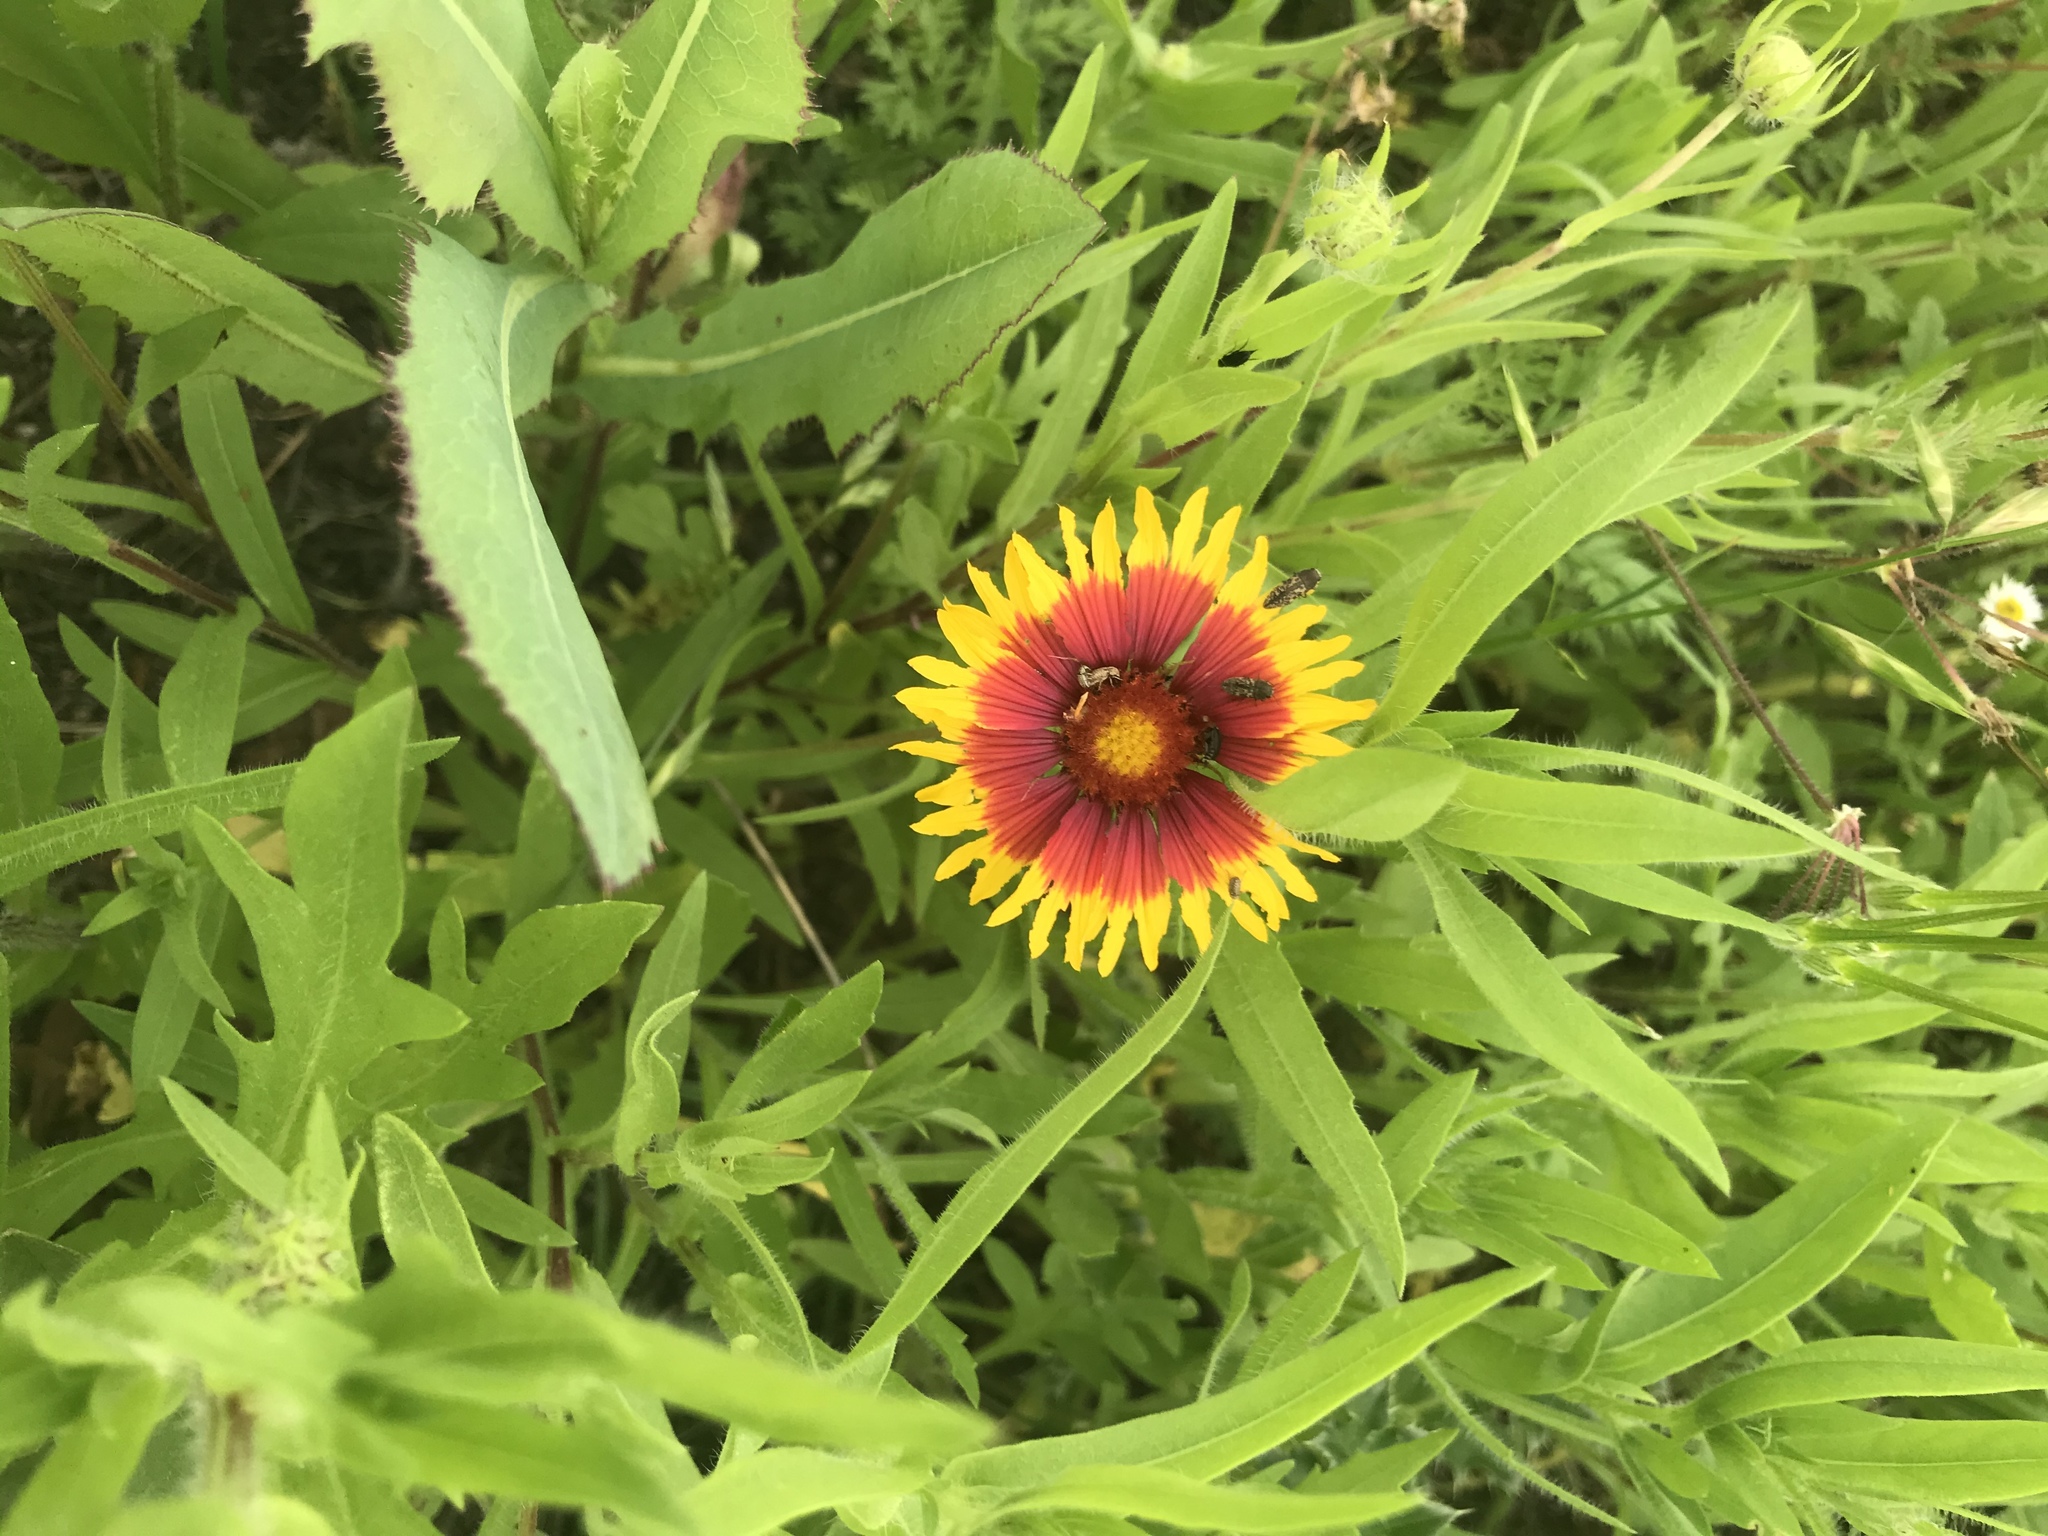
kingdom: Plantae
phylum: Tracheophyta
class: Magnoliopsida
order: Asterales
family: Asteraceae
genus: Gaillardia
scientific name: Gaillardia pulchella
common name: Firewheel
